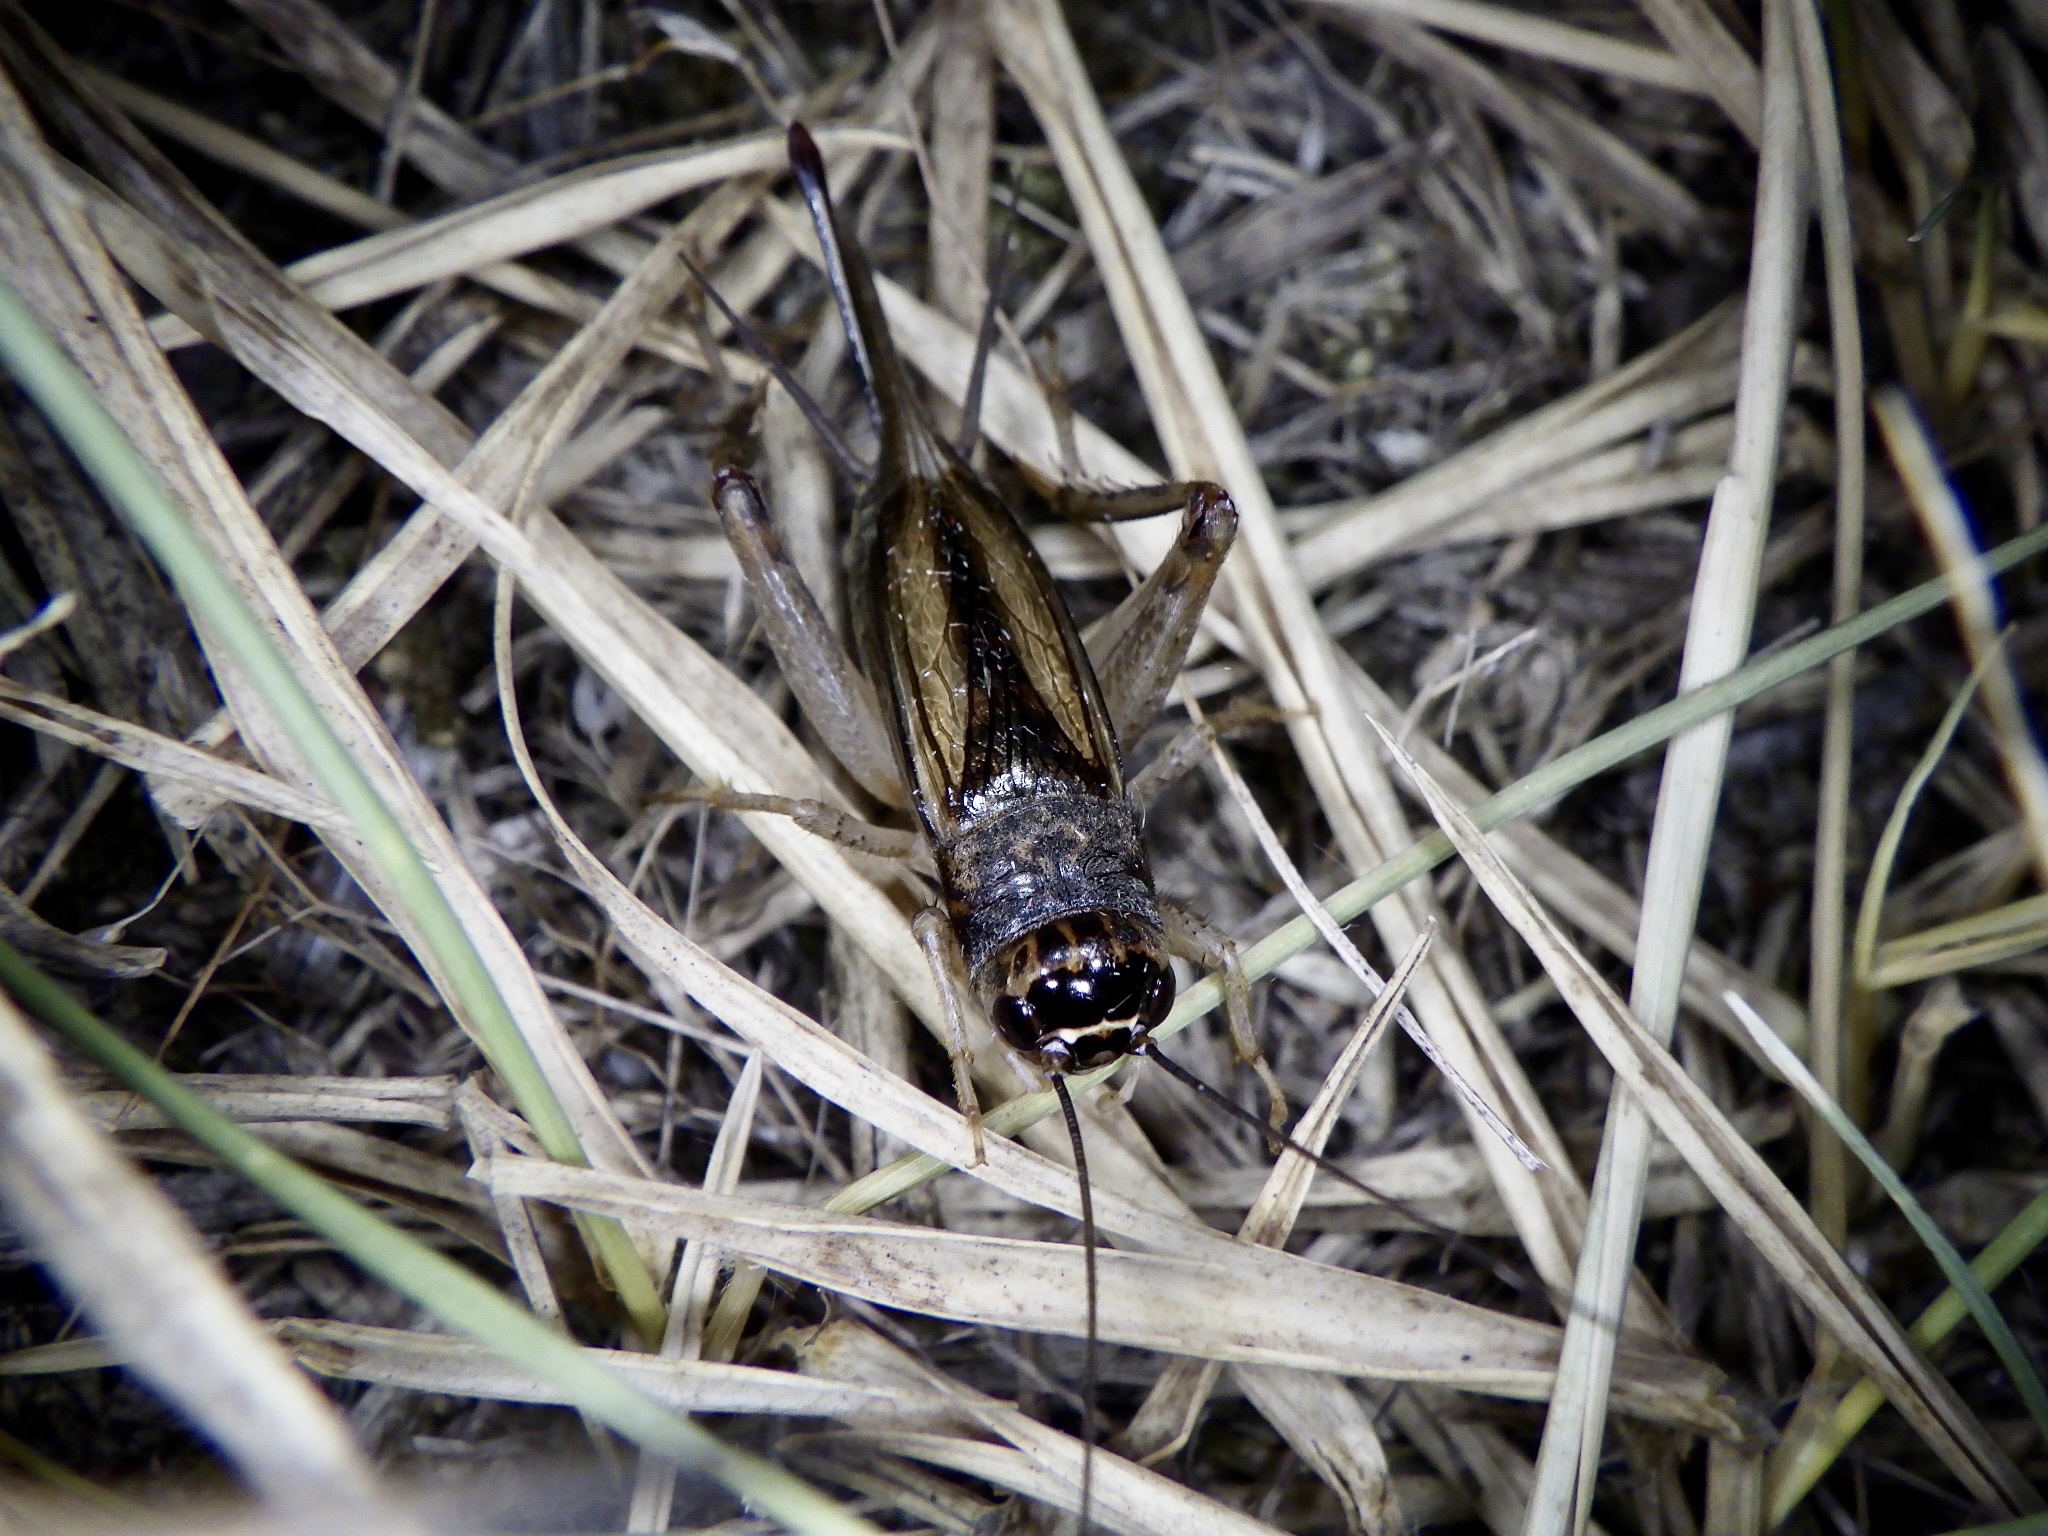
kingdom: Animalia
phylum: Arthropoda
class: Insecta
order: Orthoptera
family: Gryllidae
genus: Svercacheta
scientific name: Svercacheta siamensis
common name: Cricket
